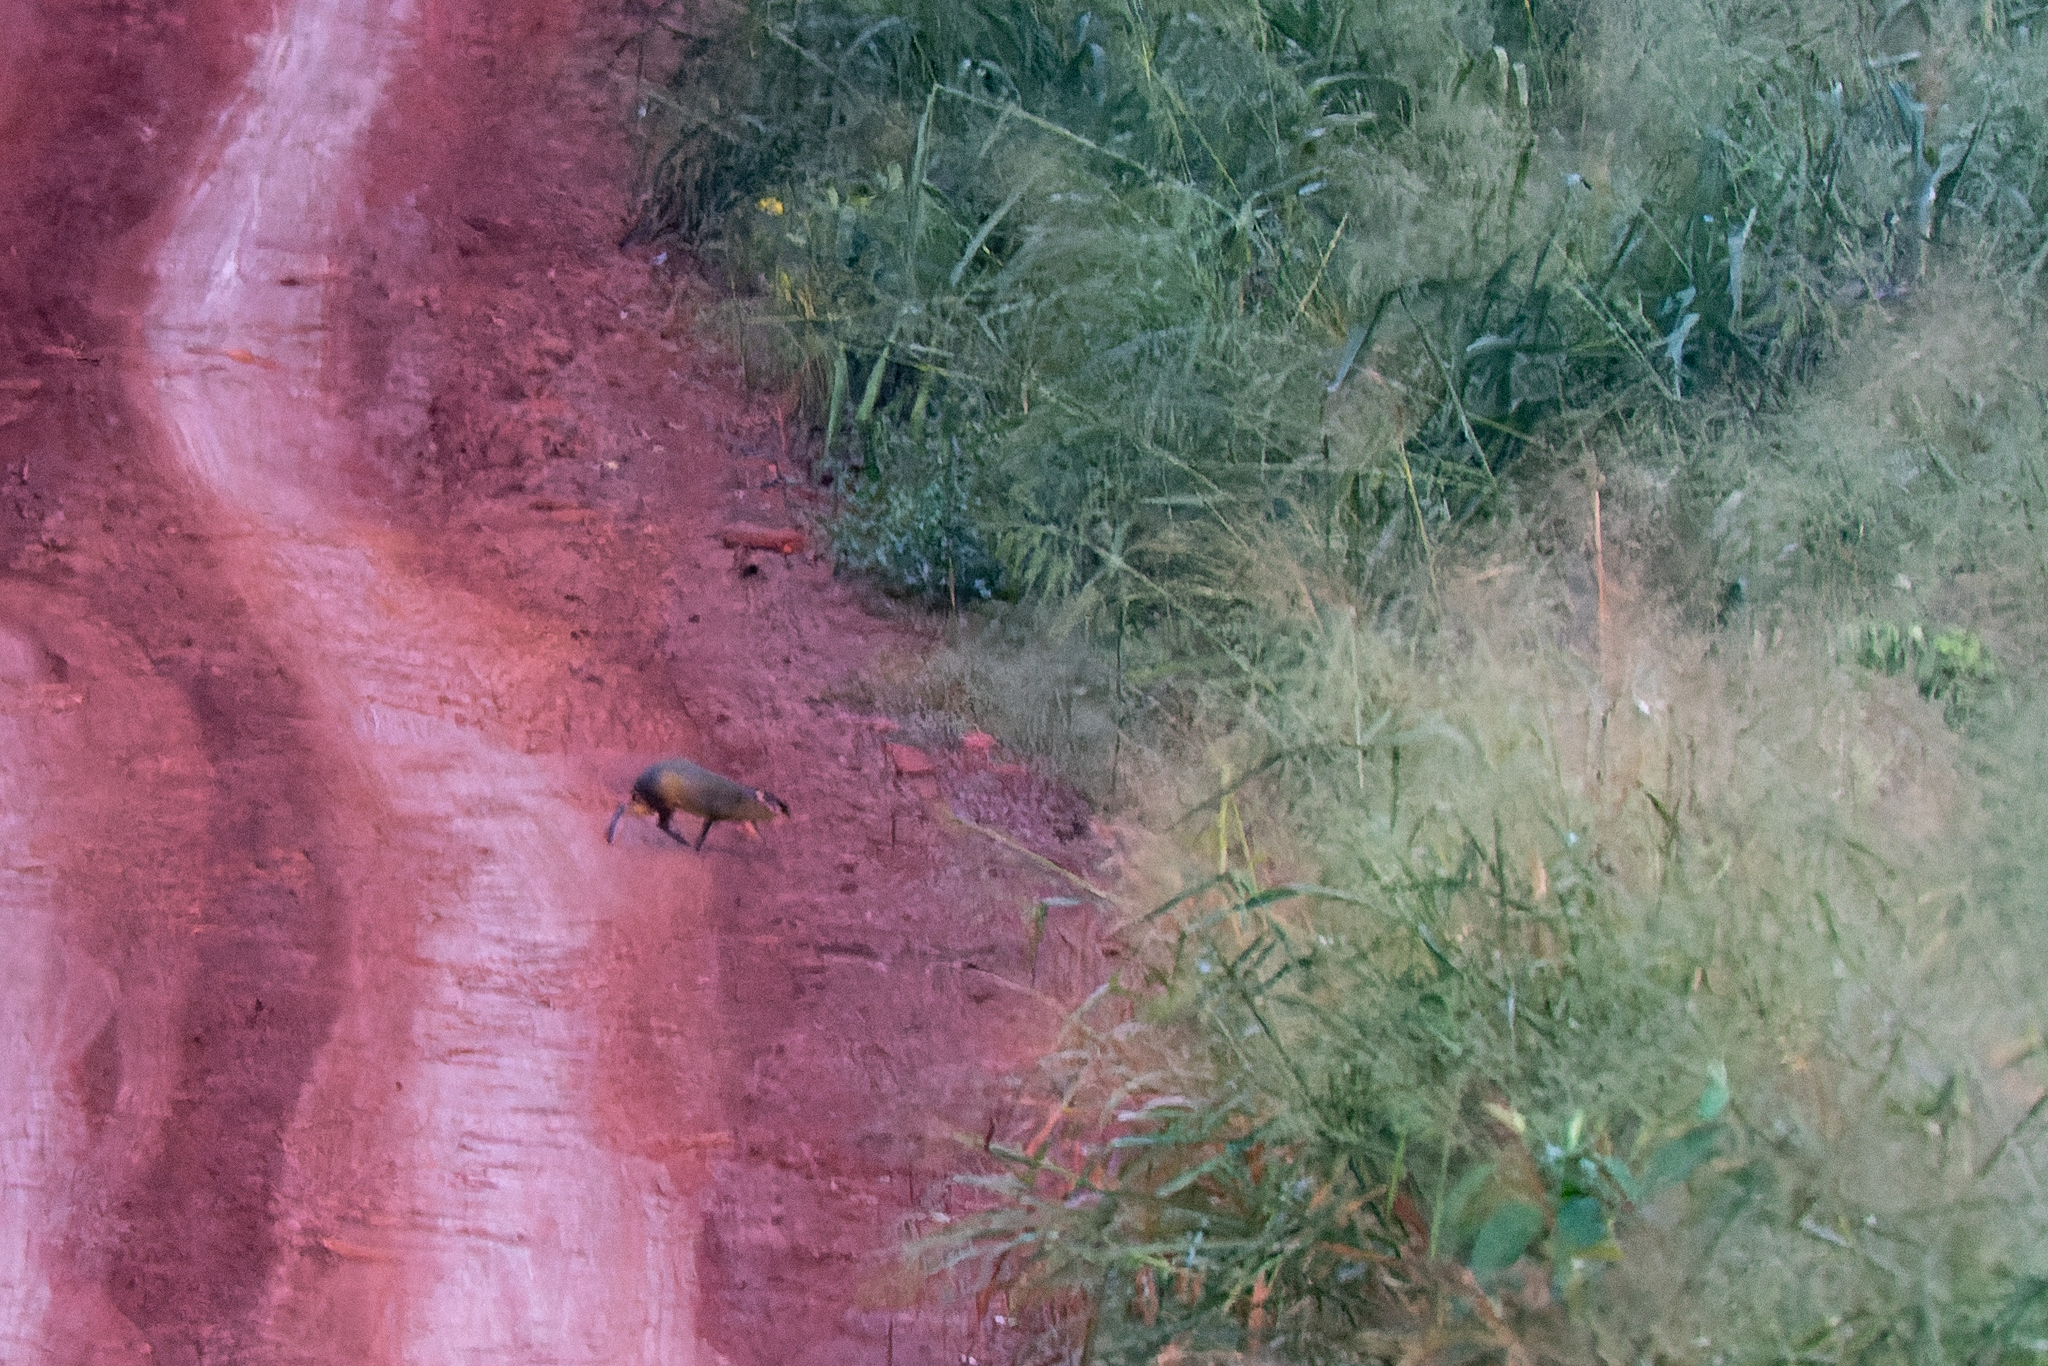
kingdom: Animalia
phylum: Chordata
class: Mammalia
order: Rodentia
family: Dasyproctidae
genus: Dasyprocta
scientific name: Dasyprocta azarae
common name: Azara's agouti
